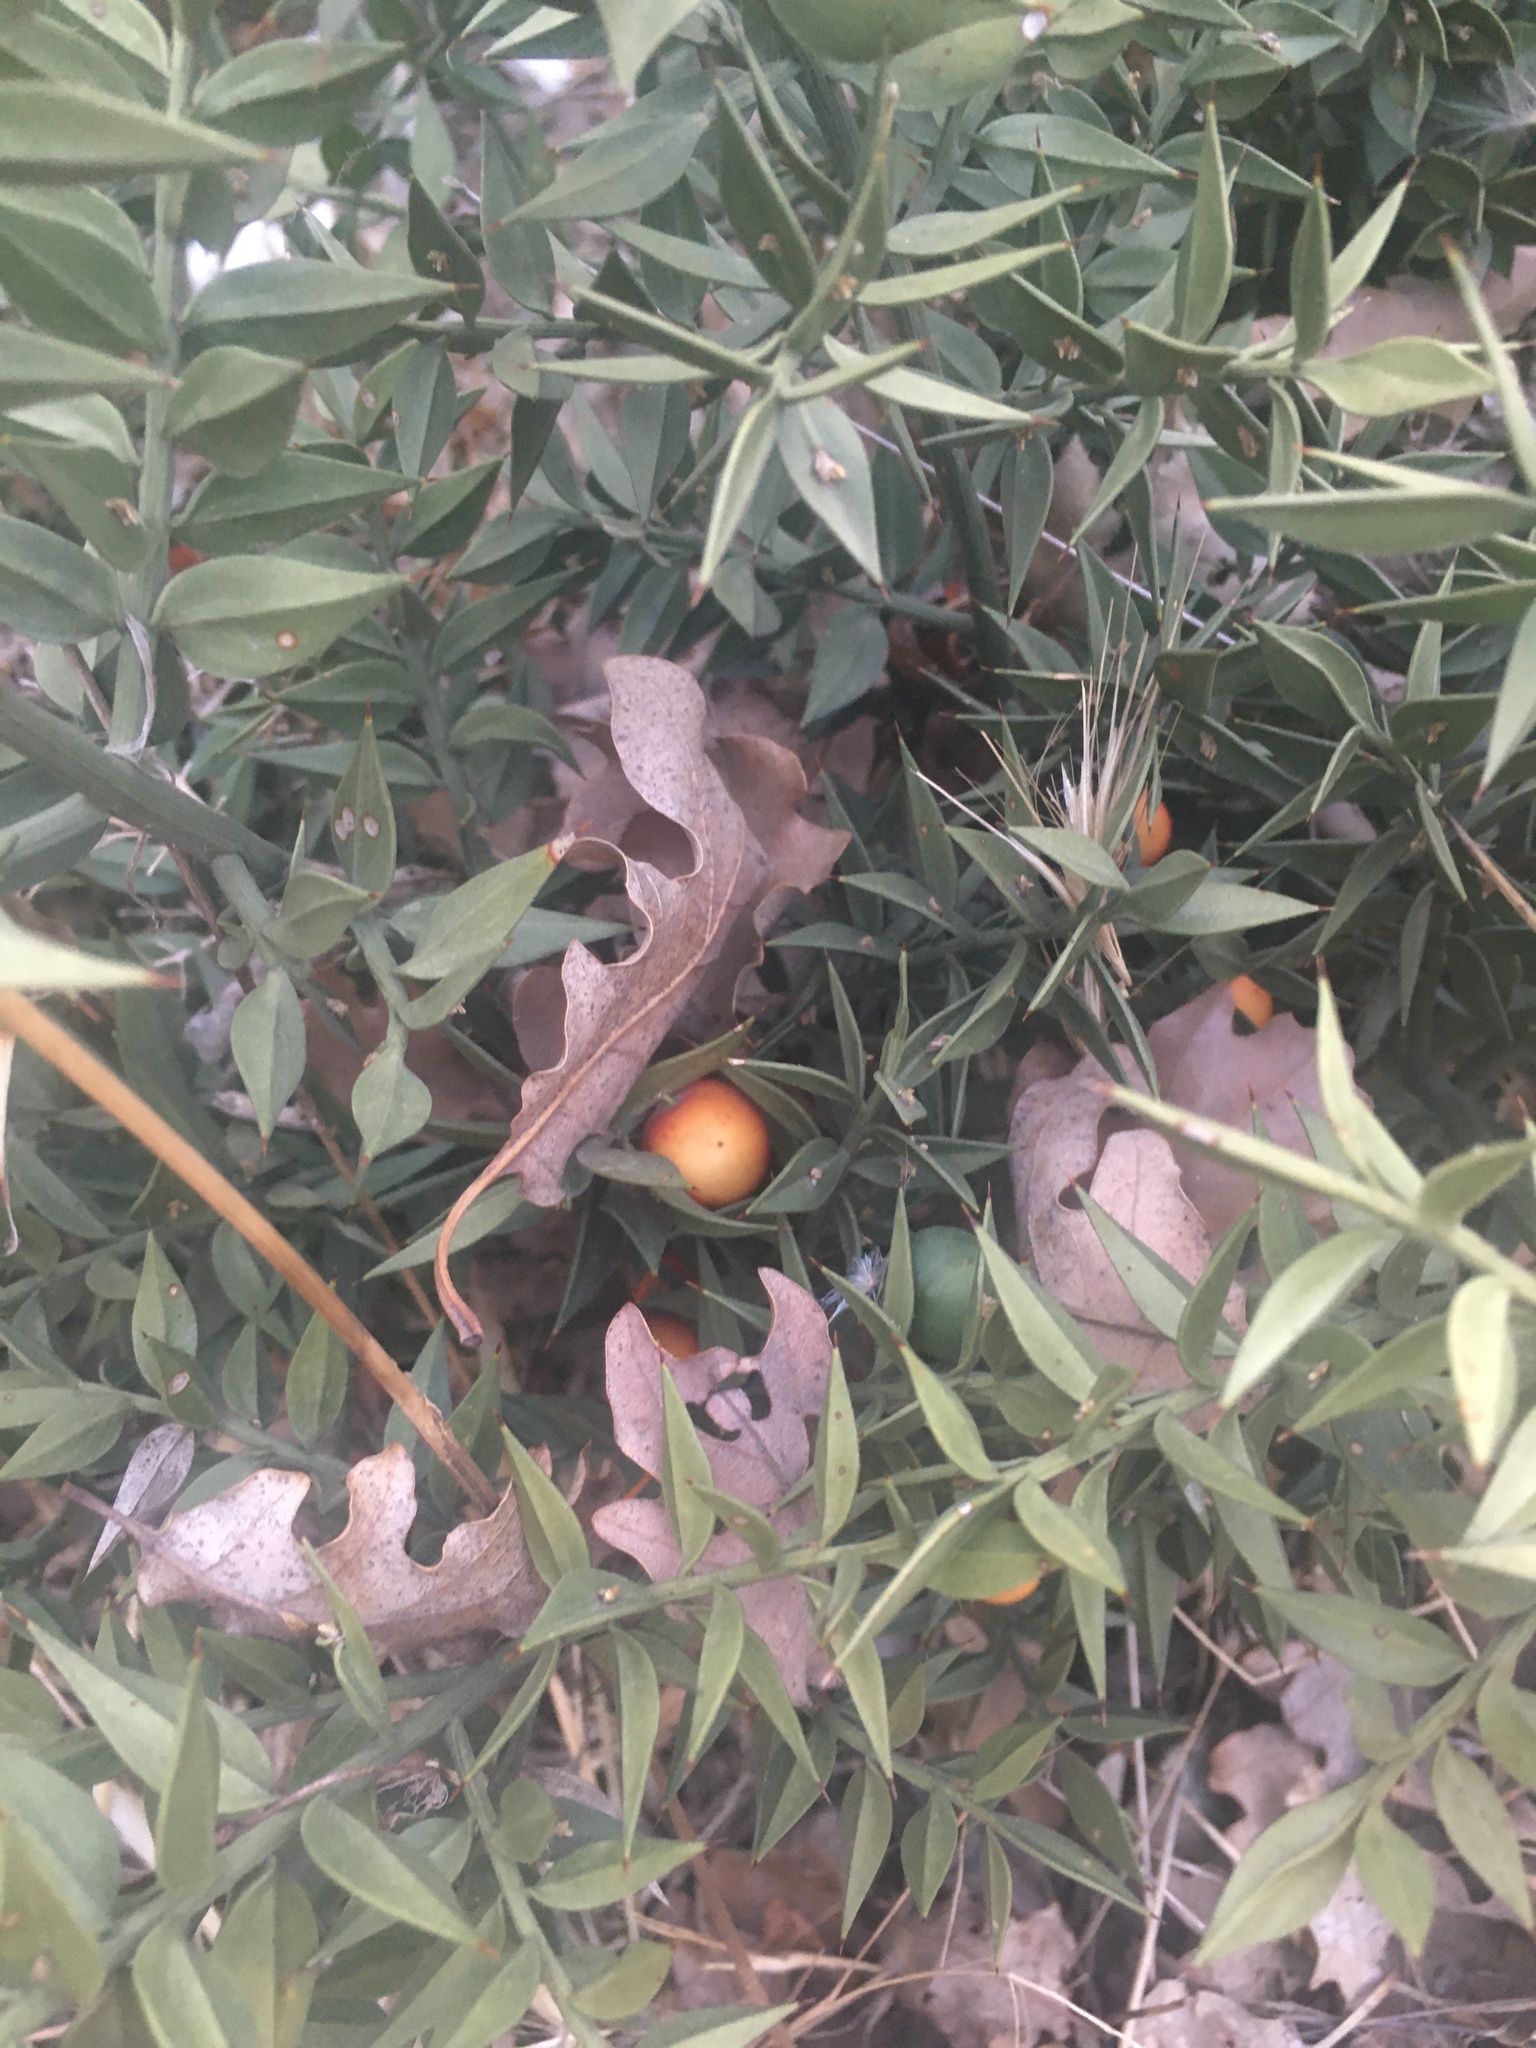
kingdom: Plantae
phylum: Tracheophyta
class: Liliopsida
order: Asparagales
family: Asparagaceae
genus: Ruscus
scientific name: Ruscus aculeatus
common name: Butcher's-broom
